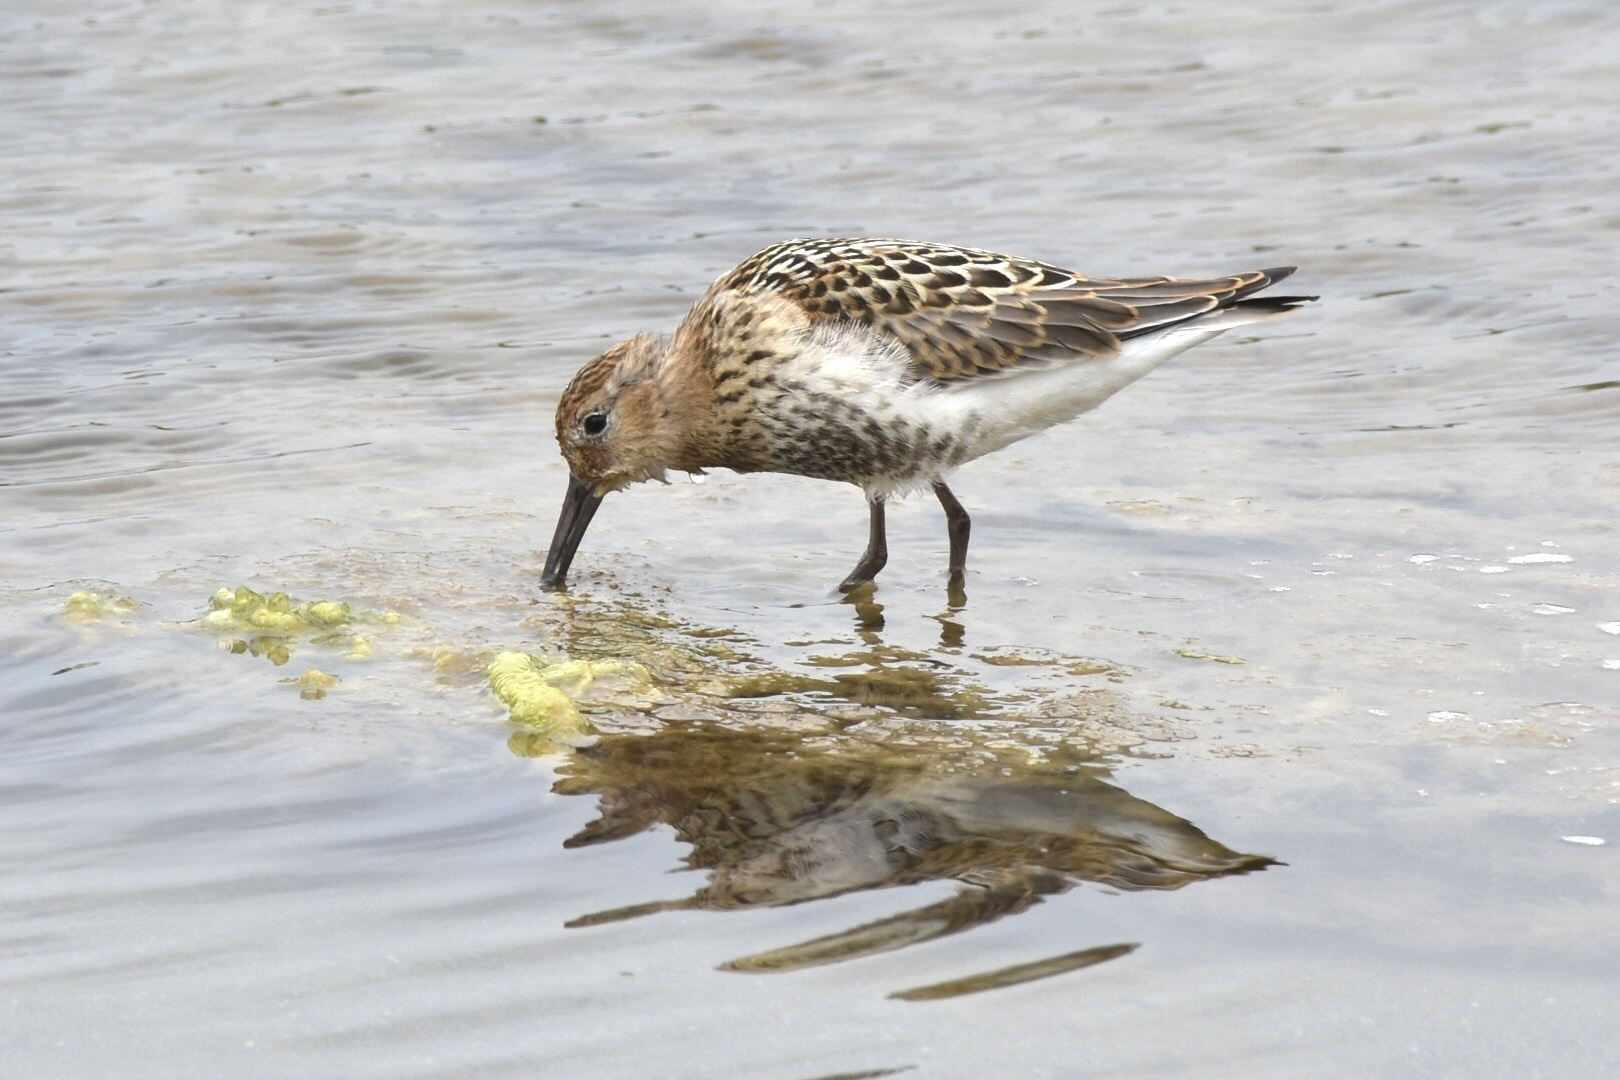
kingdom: Animalia
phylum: Chordata
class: Aves
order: Charadriiformes
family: Scolopacidae
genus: Calidris
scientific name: Calidris alpina
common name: Dunlin
